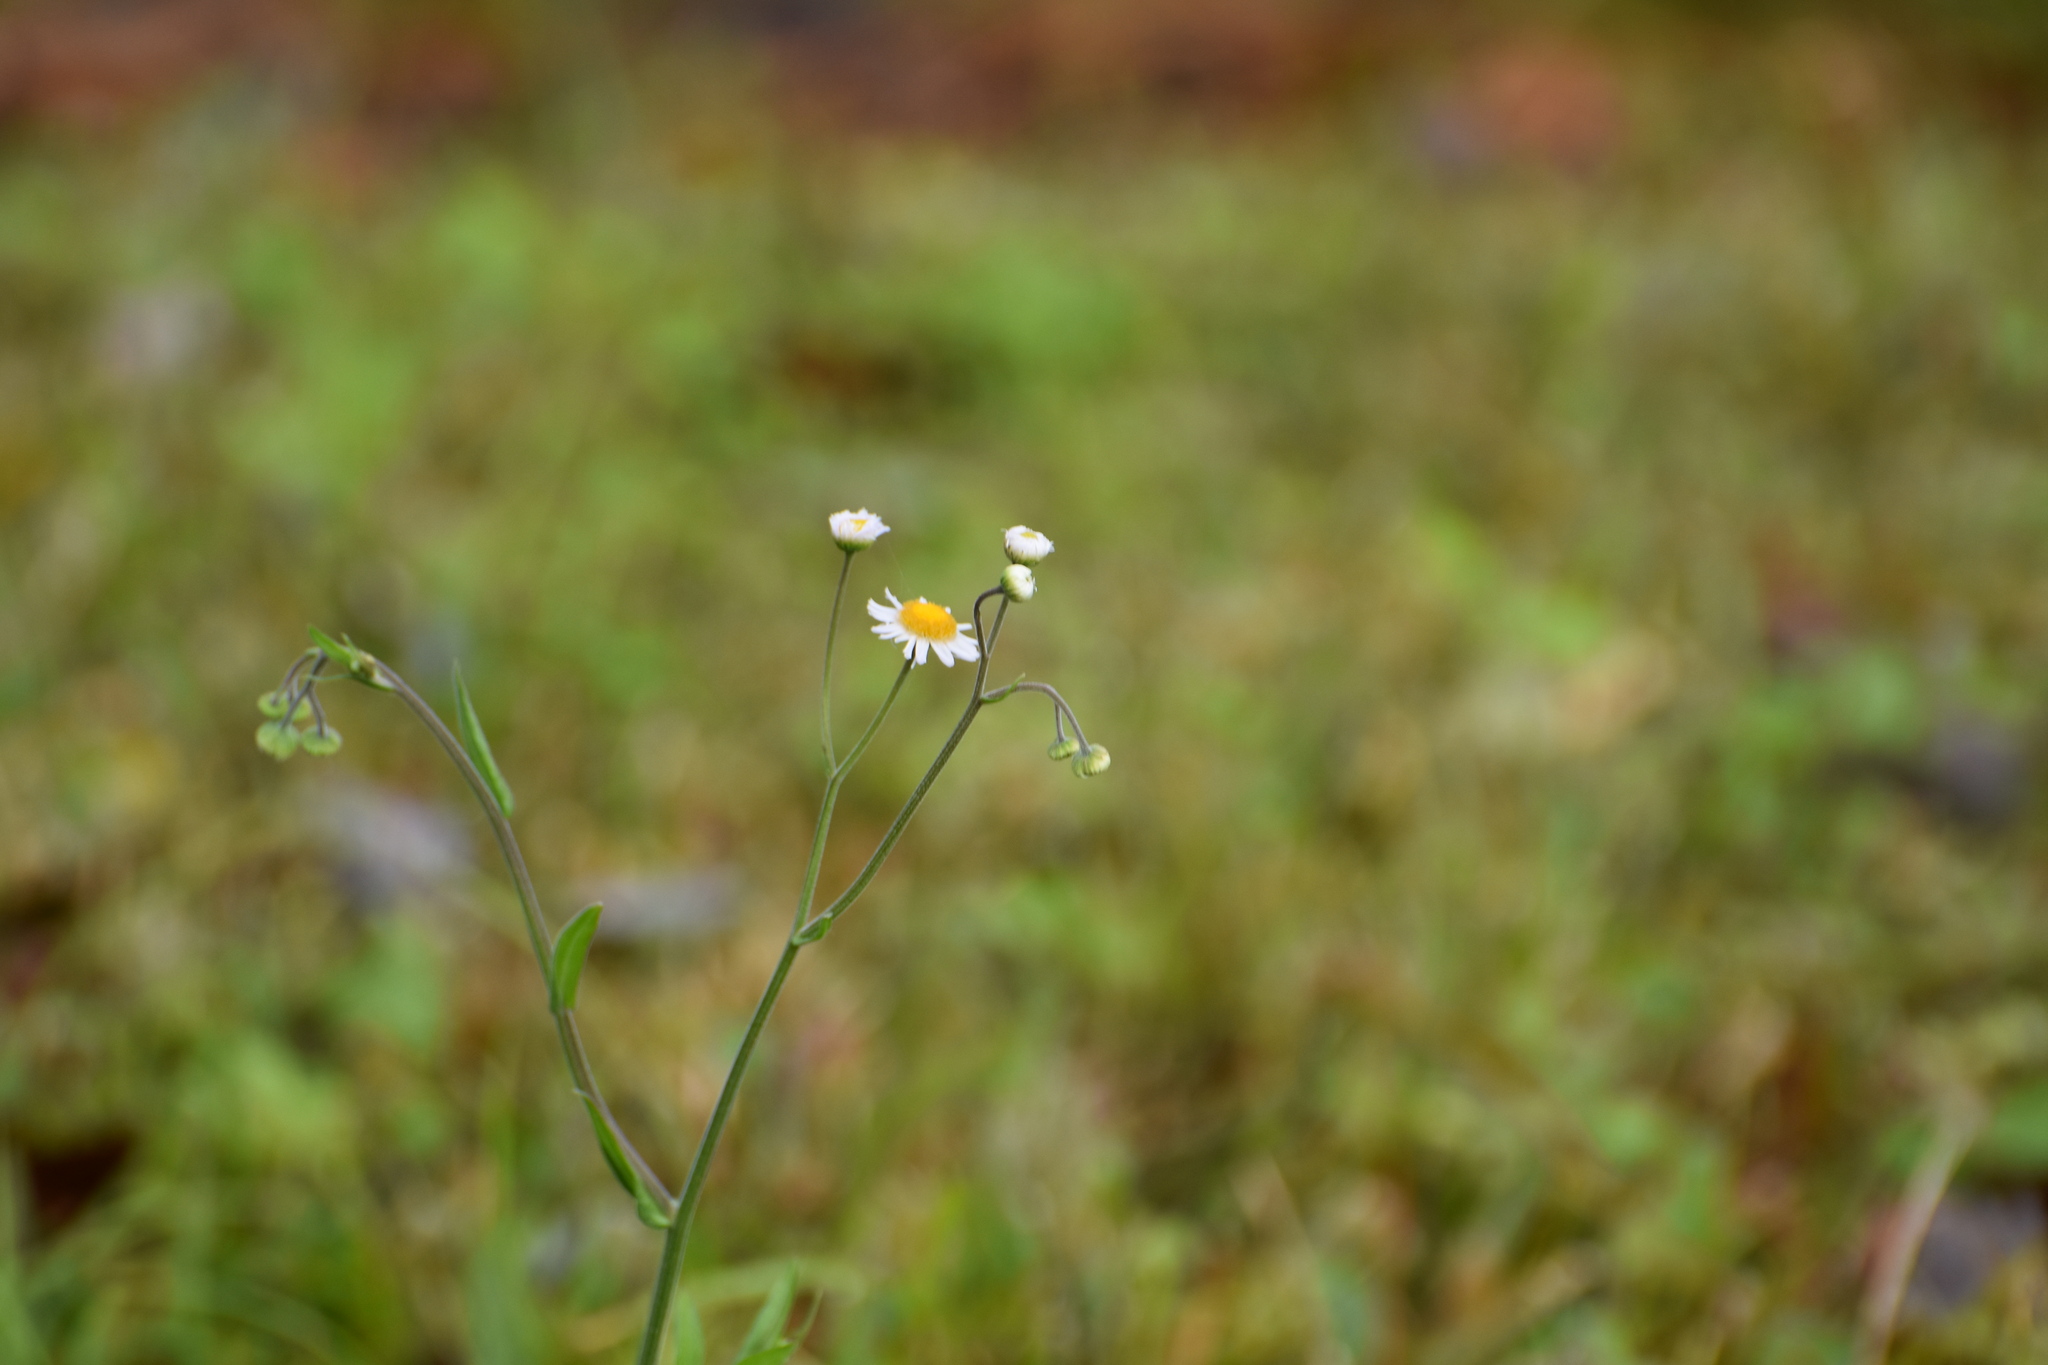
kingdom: Plantae
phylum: Tracheophyta
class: Magnoliopsida
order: Asterales
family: Asteraceae
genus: Erigeron
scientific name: Erigeron quercifolius
